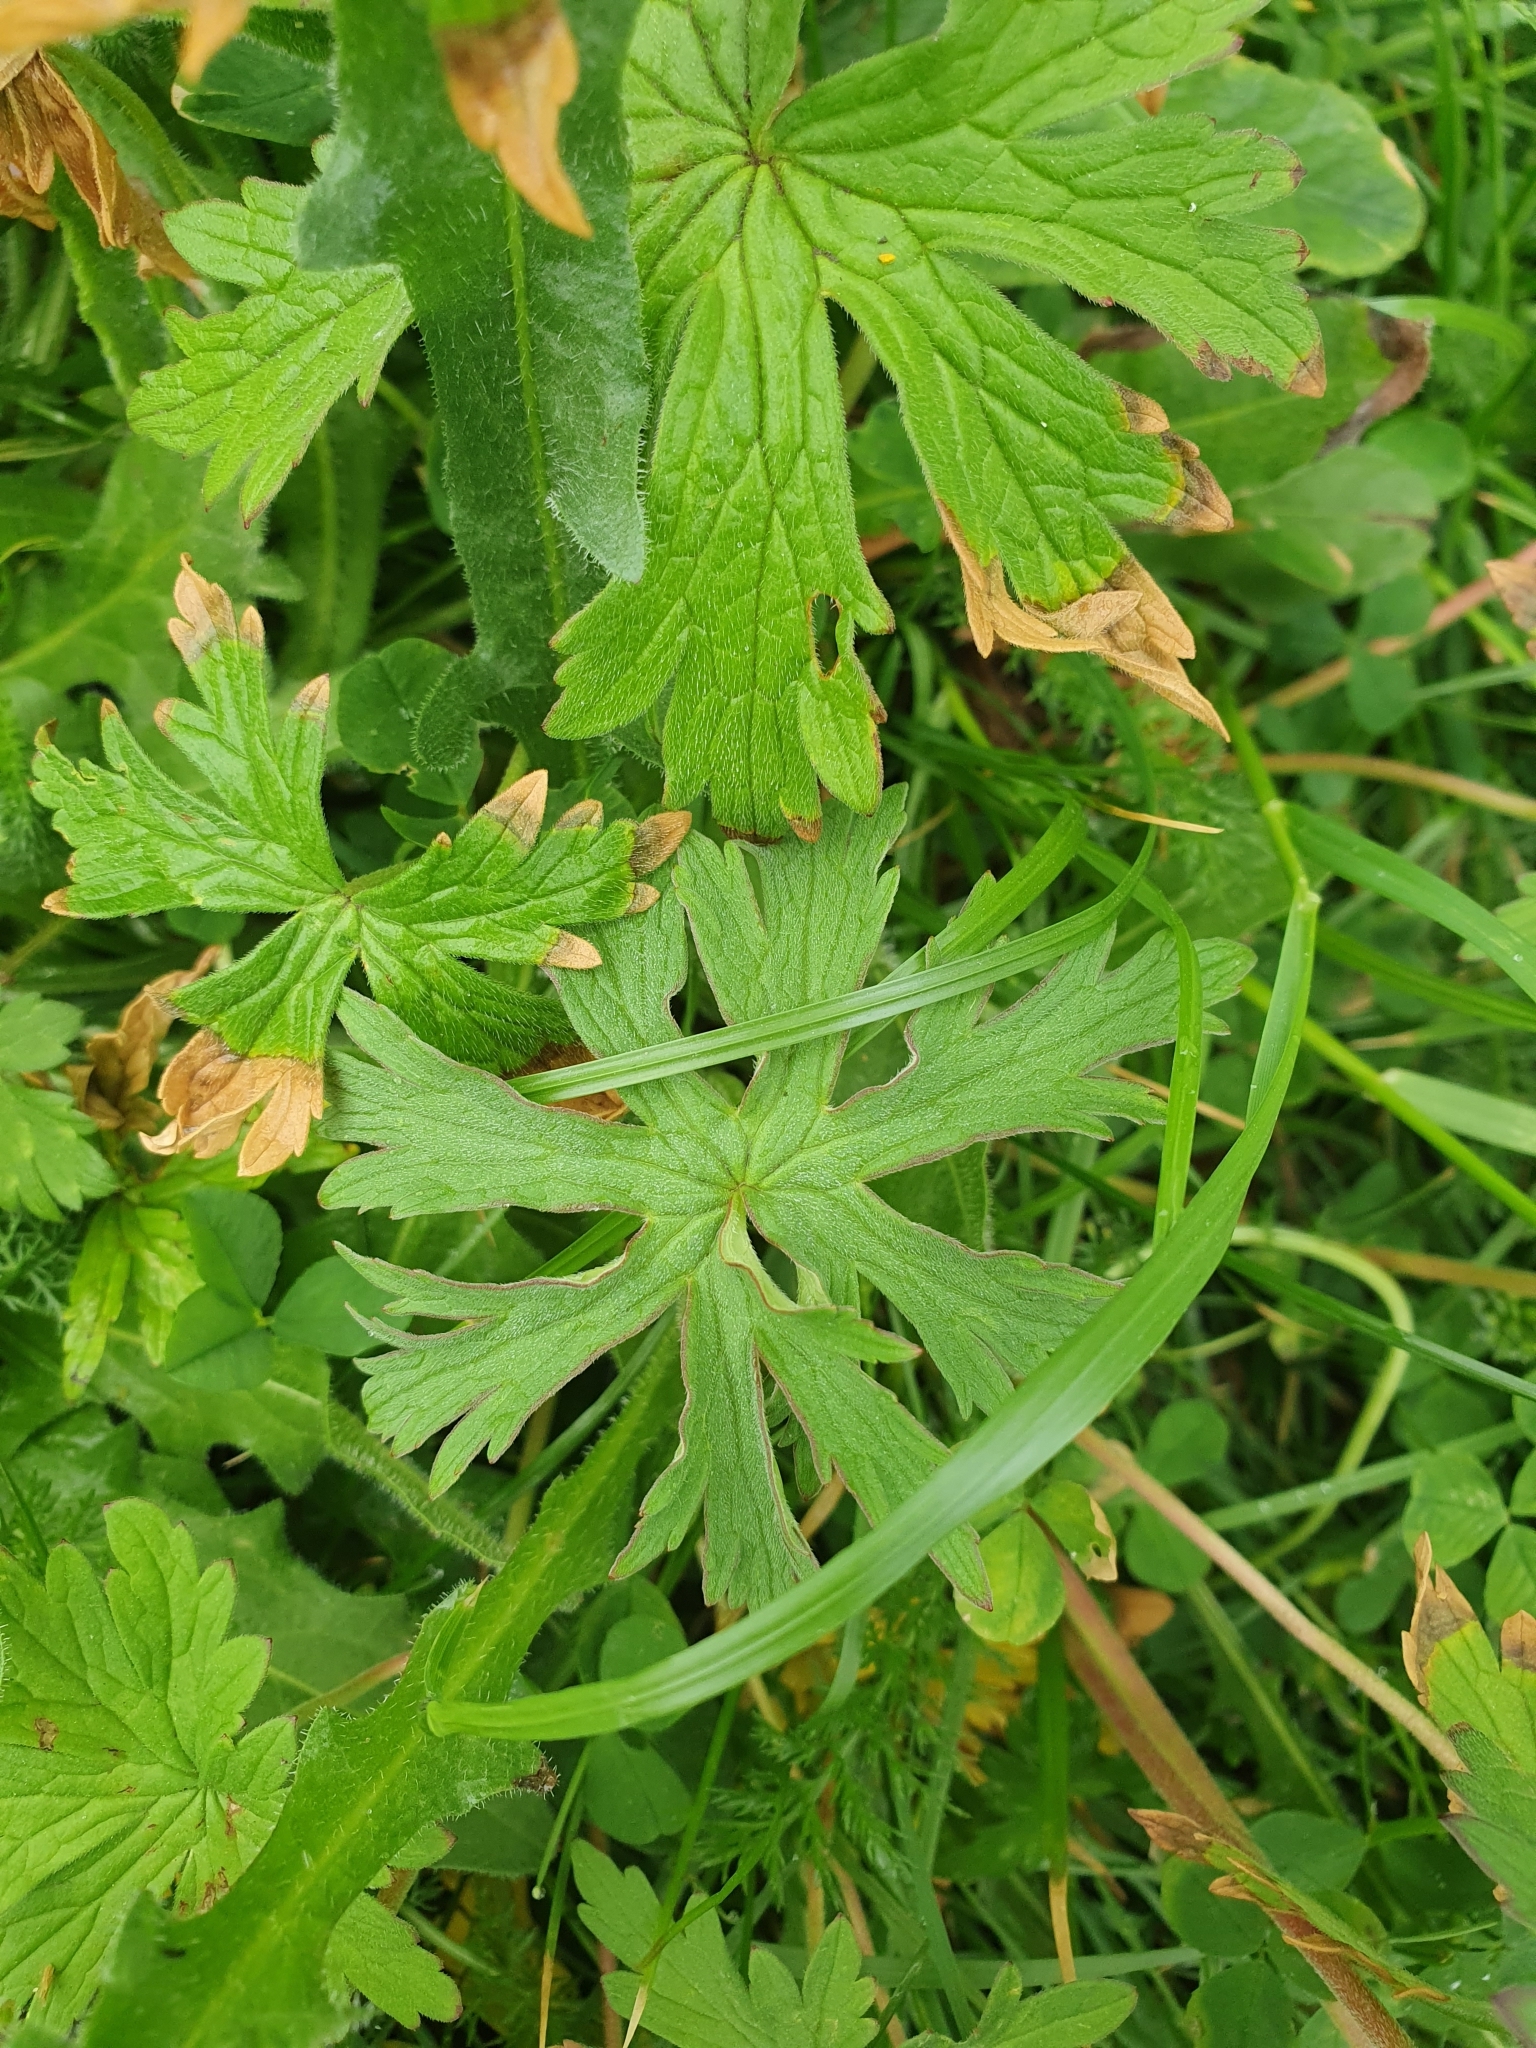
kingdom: Plantae
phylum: Tracheophyta
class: Magnoliopsida
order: Geraniales
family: Geraniaceae
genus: Geranium
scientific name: Geranium pratense
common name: Meadow crane's-bill
